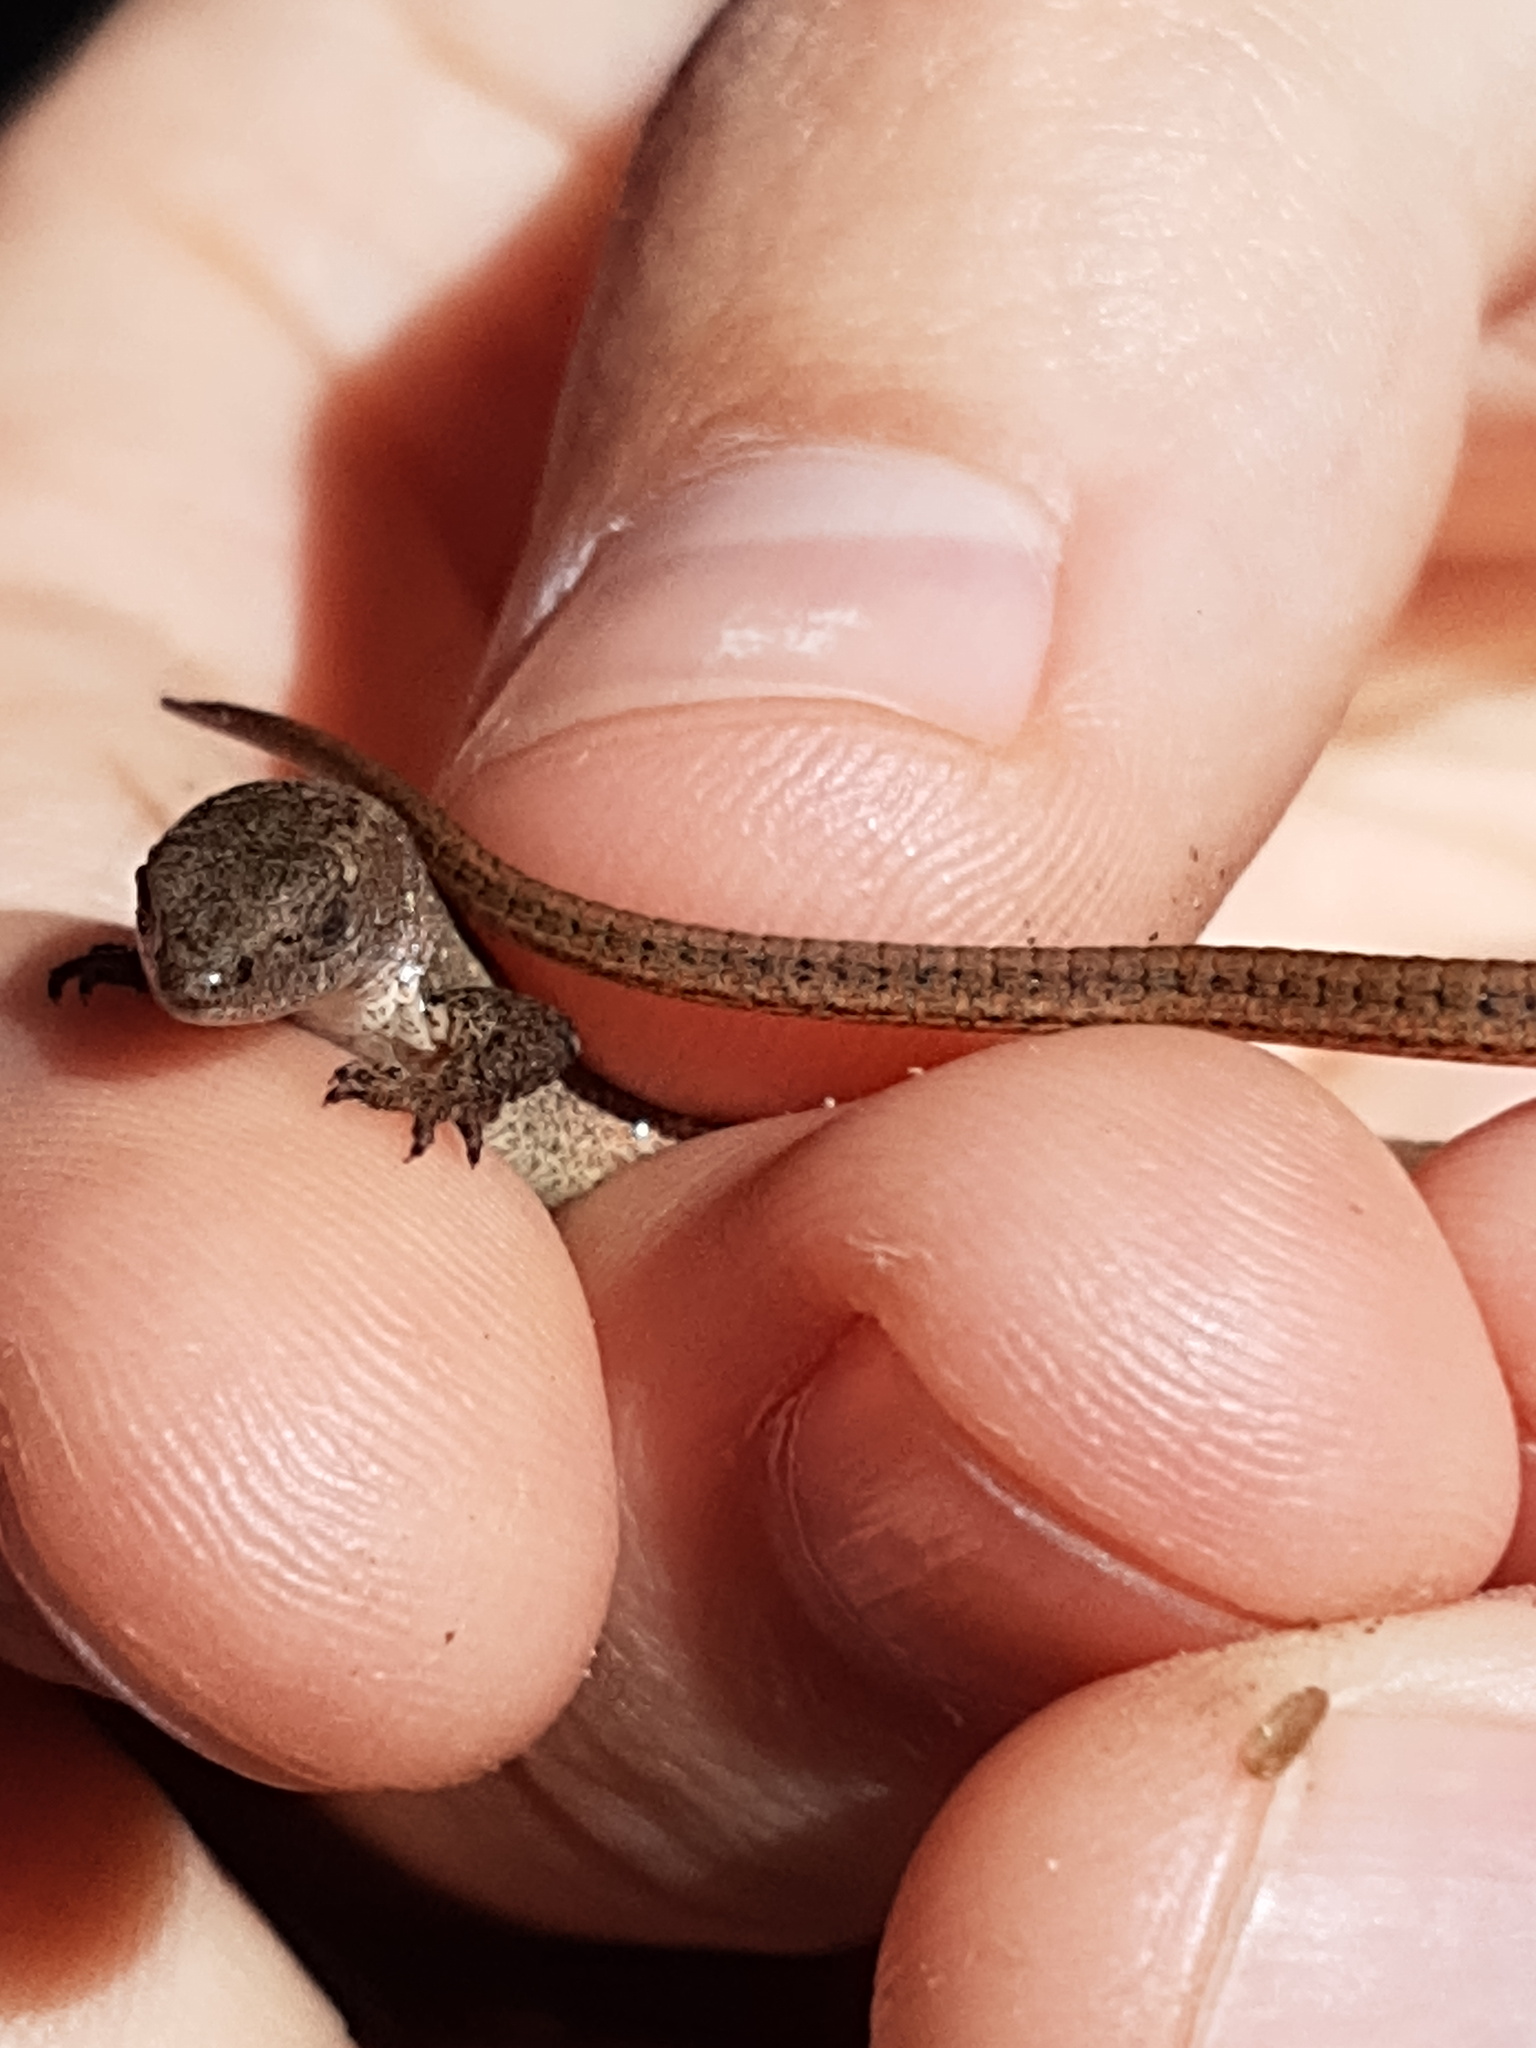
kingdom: Animalia
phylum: Chordata
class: Squamata
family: Gymnophthalmidae
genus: Cercosaura
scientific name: Cercosaura schreibersii
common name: Schreibers' many-fingered teiid
